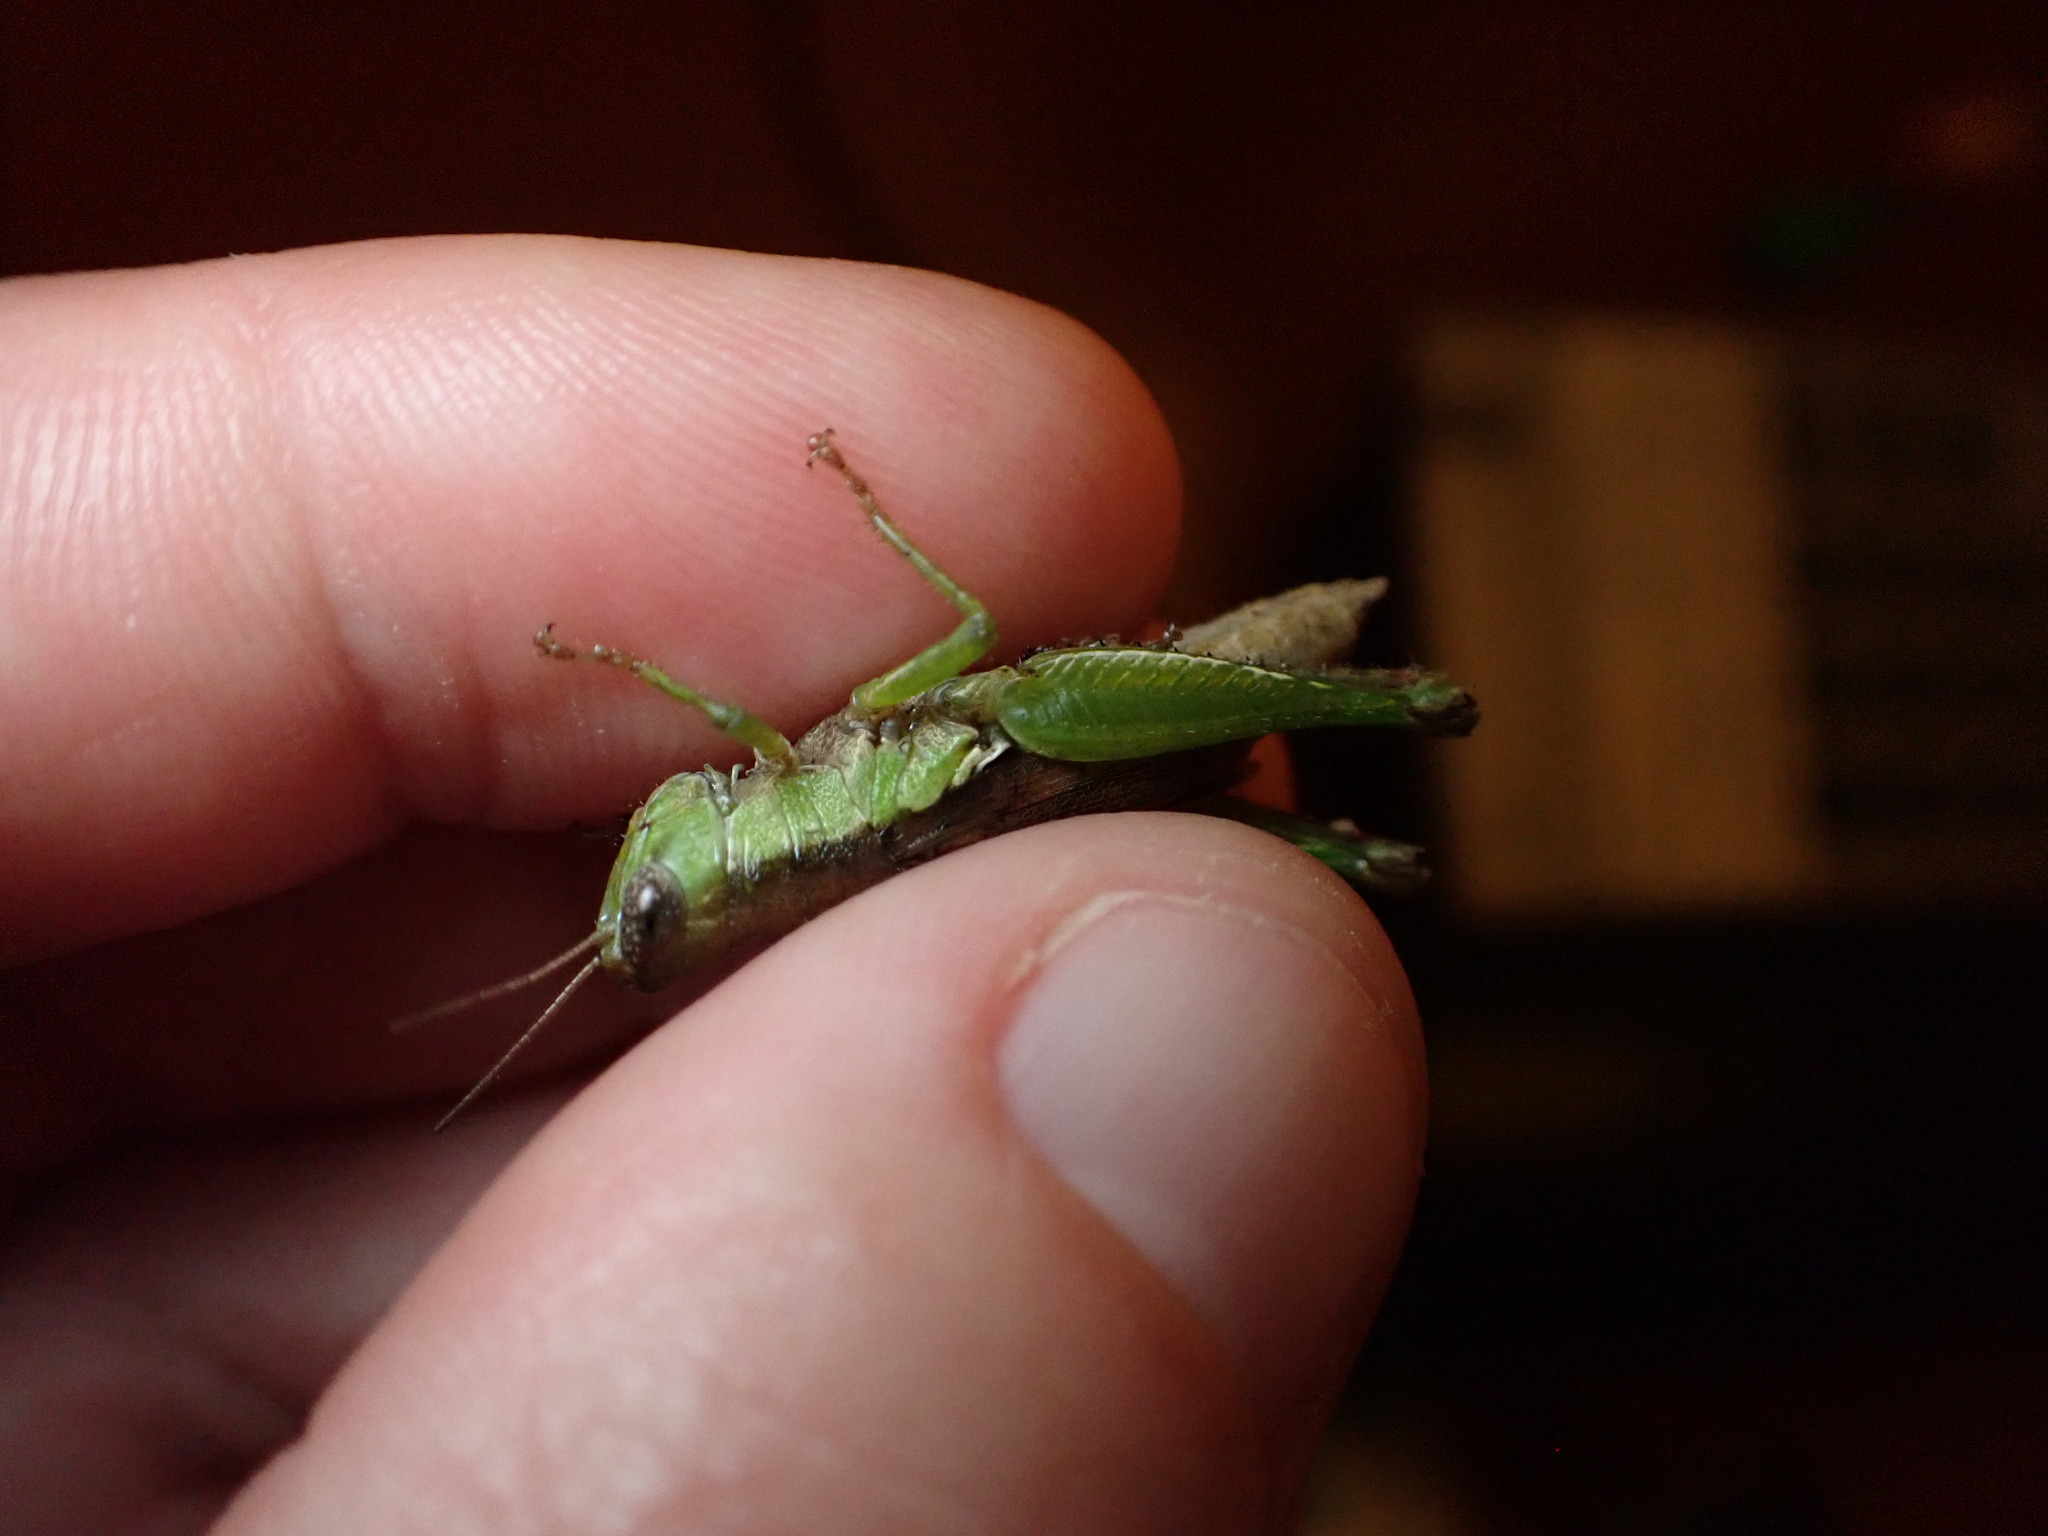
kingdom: Animalia
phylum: Arthropoda
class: Insecta
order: Orthoptera
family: Acrididae
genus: Pseudoxya
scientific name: Pseudoxya diminuta
